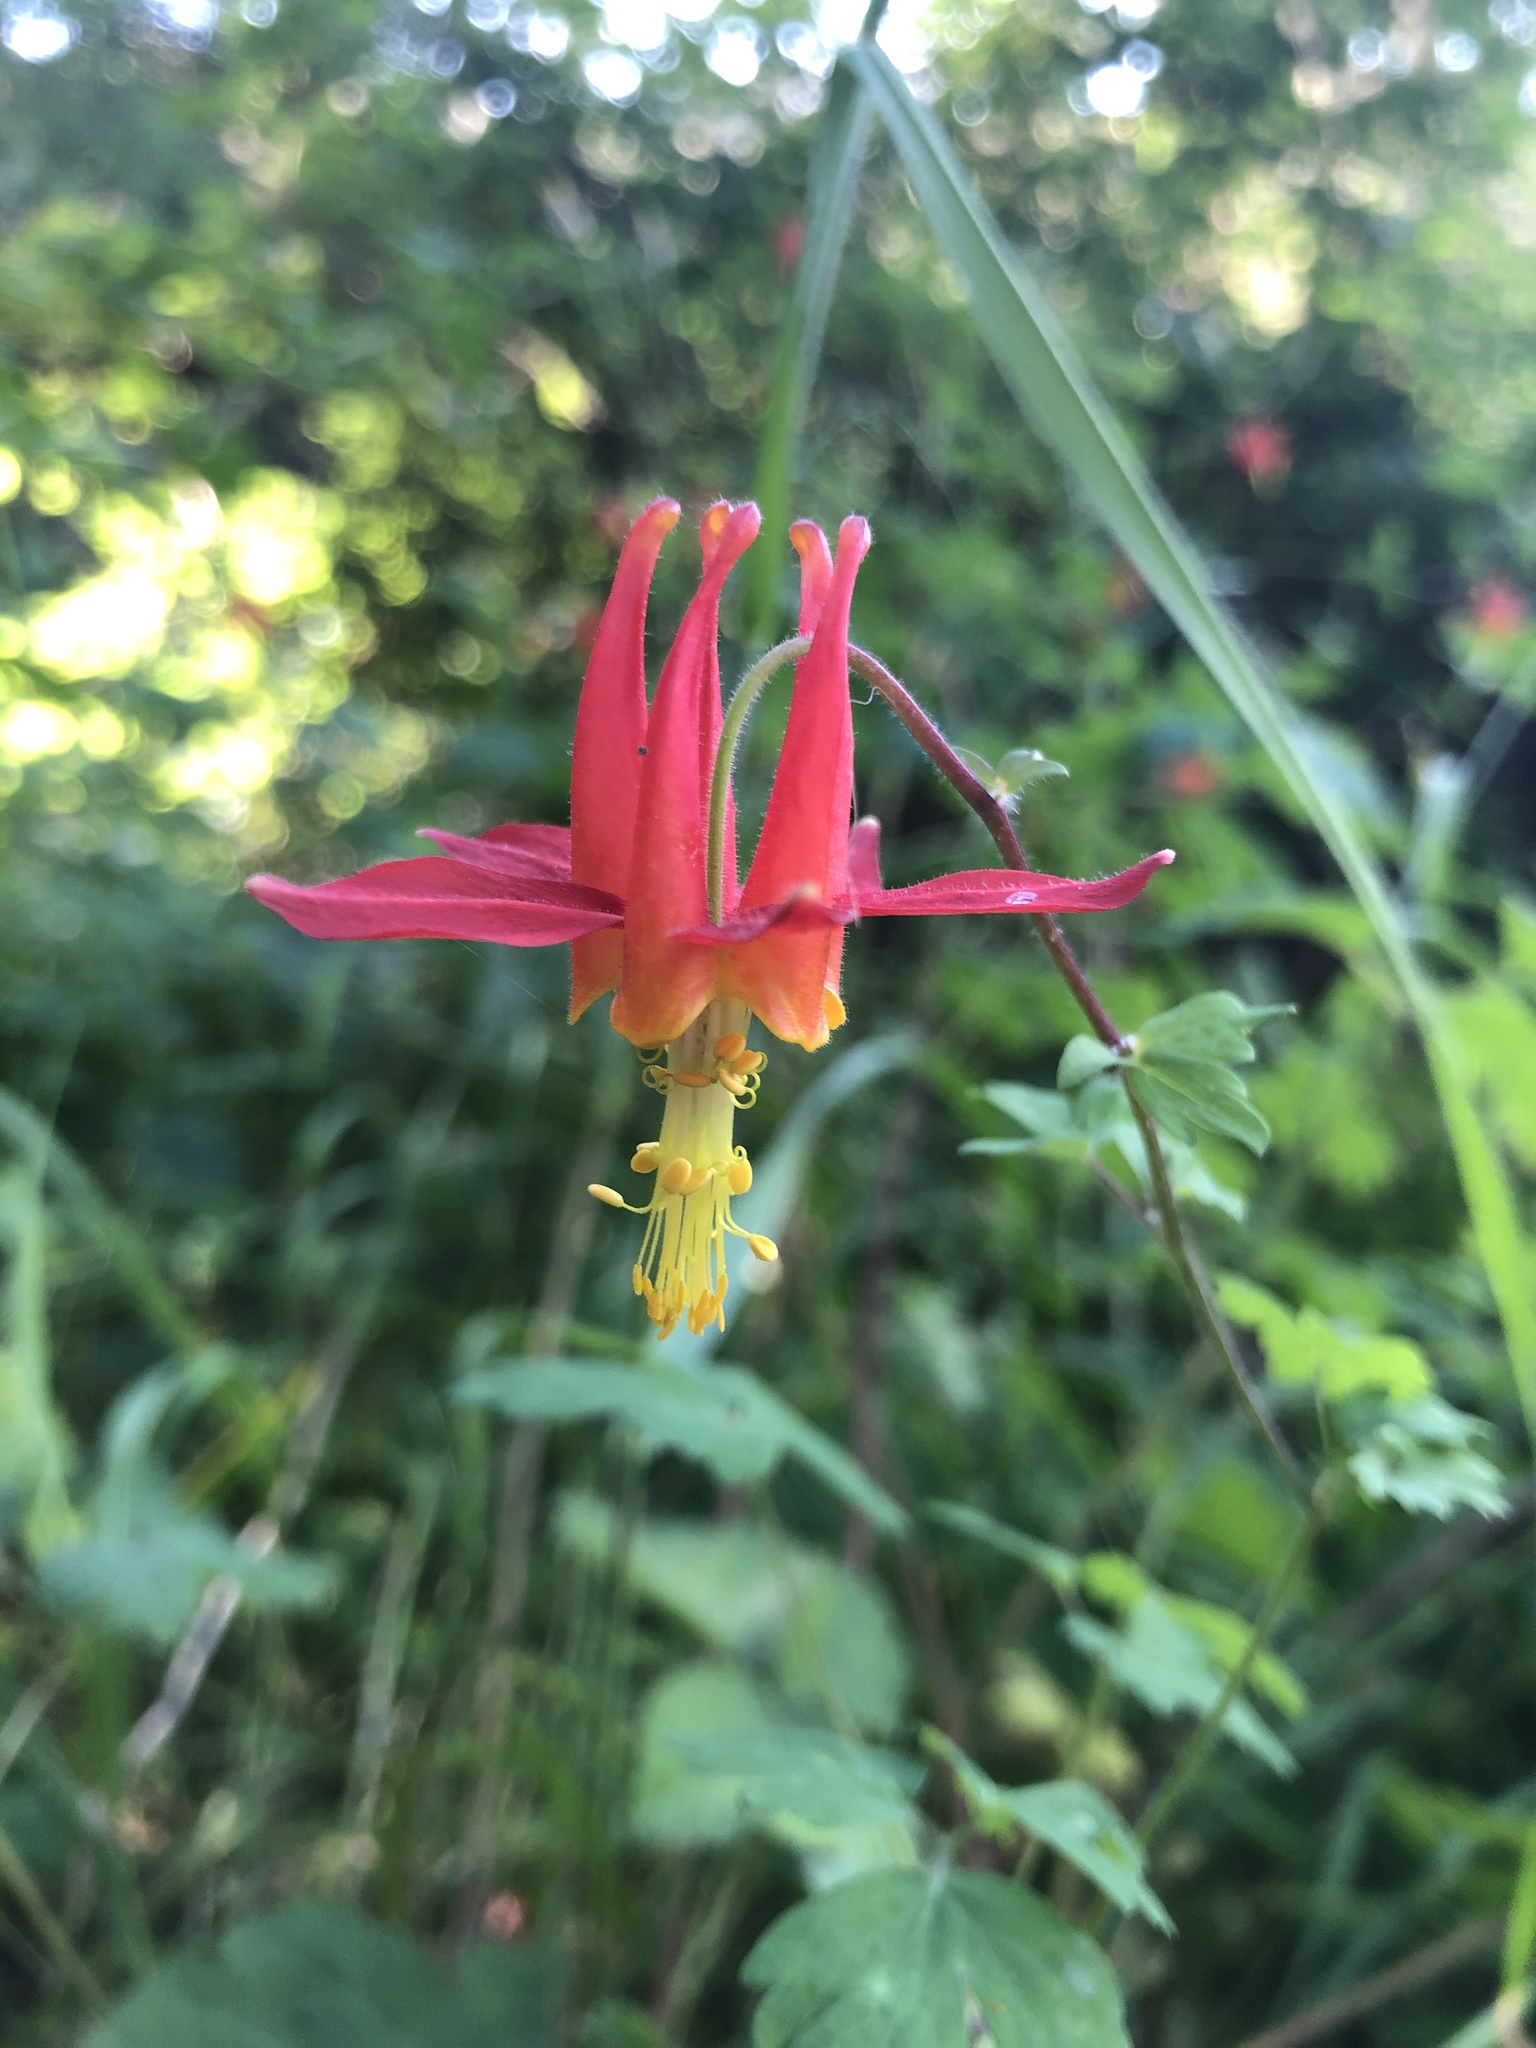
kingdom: Plantae
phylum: Tracheophyta
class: Magnoliopsida
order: Ranunculales
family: Ranunculaceae
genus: Aquilegia
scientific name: Aquilegia formosa
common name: Sitka columbine
